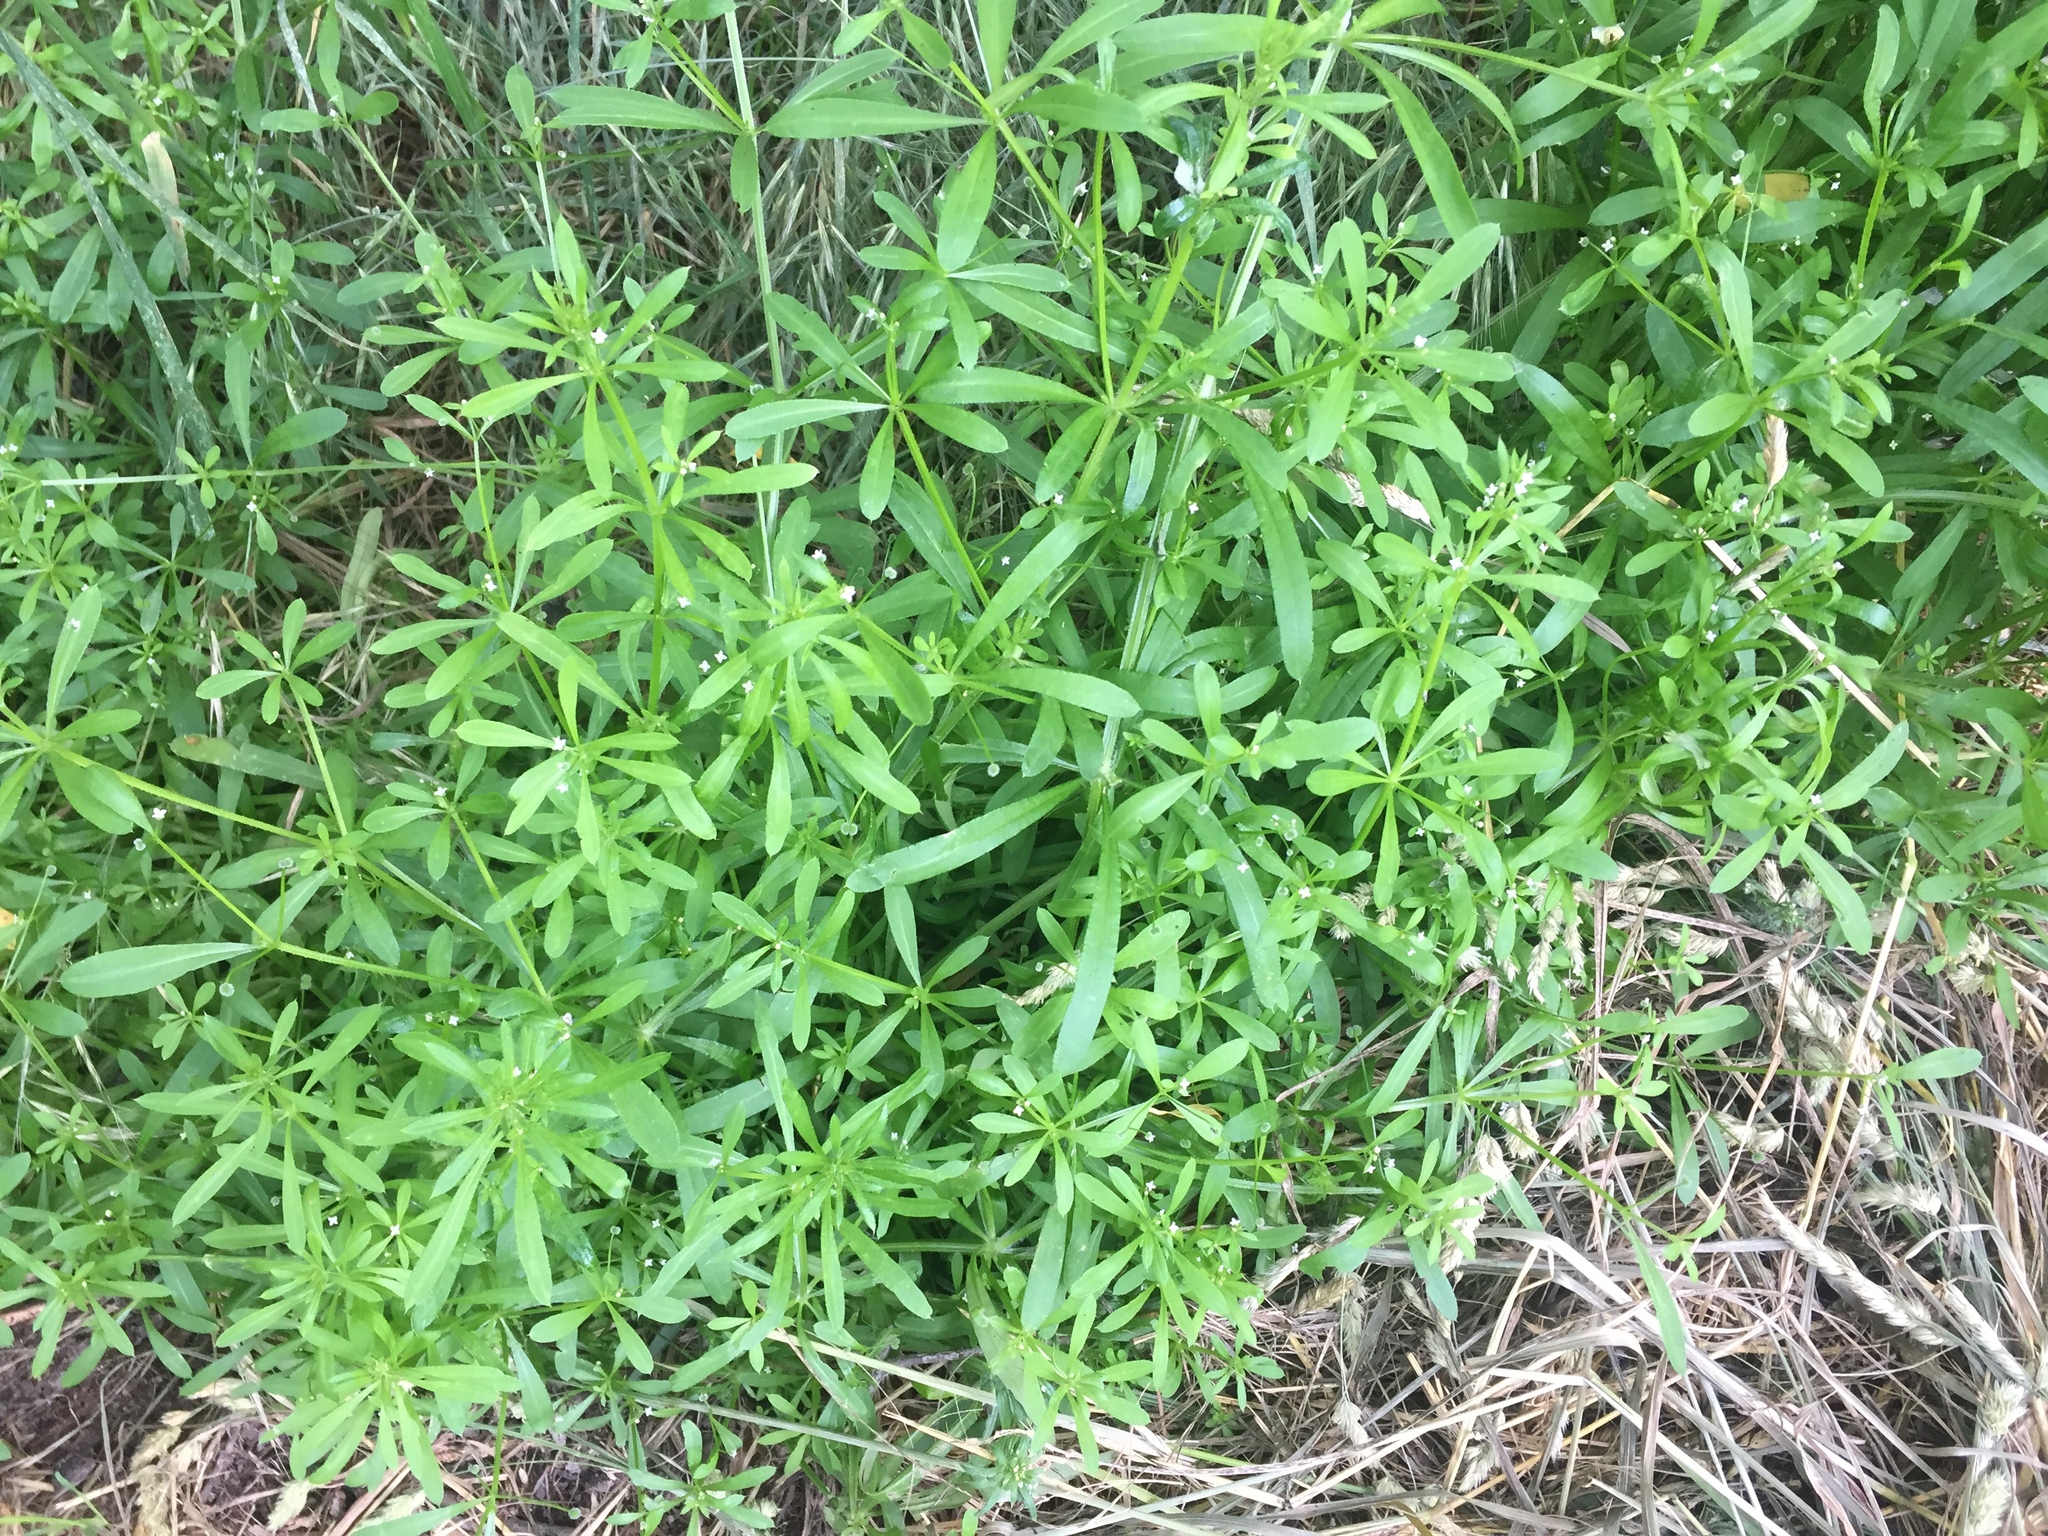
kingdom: Plantae
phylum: Tracheophyta
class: Magnoliopsida
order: Gentianales
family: Rubiaceae
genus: Galium
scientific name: Galium aparine
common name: Cleavers
